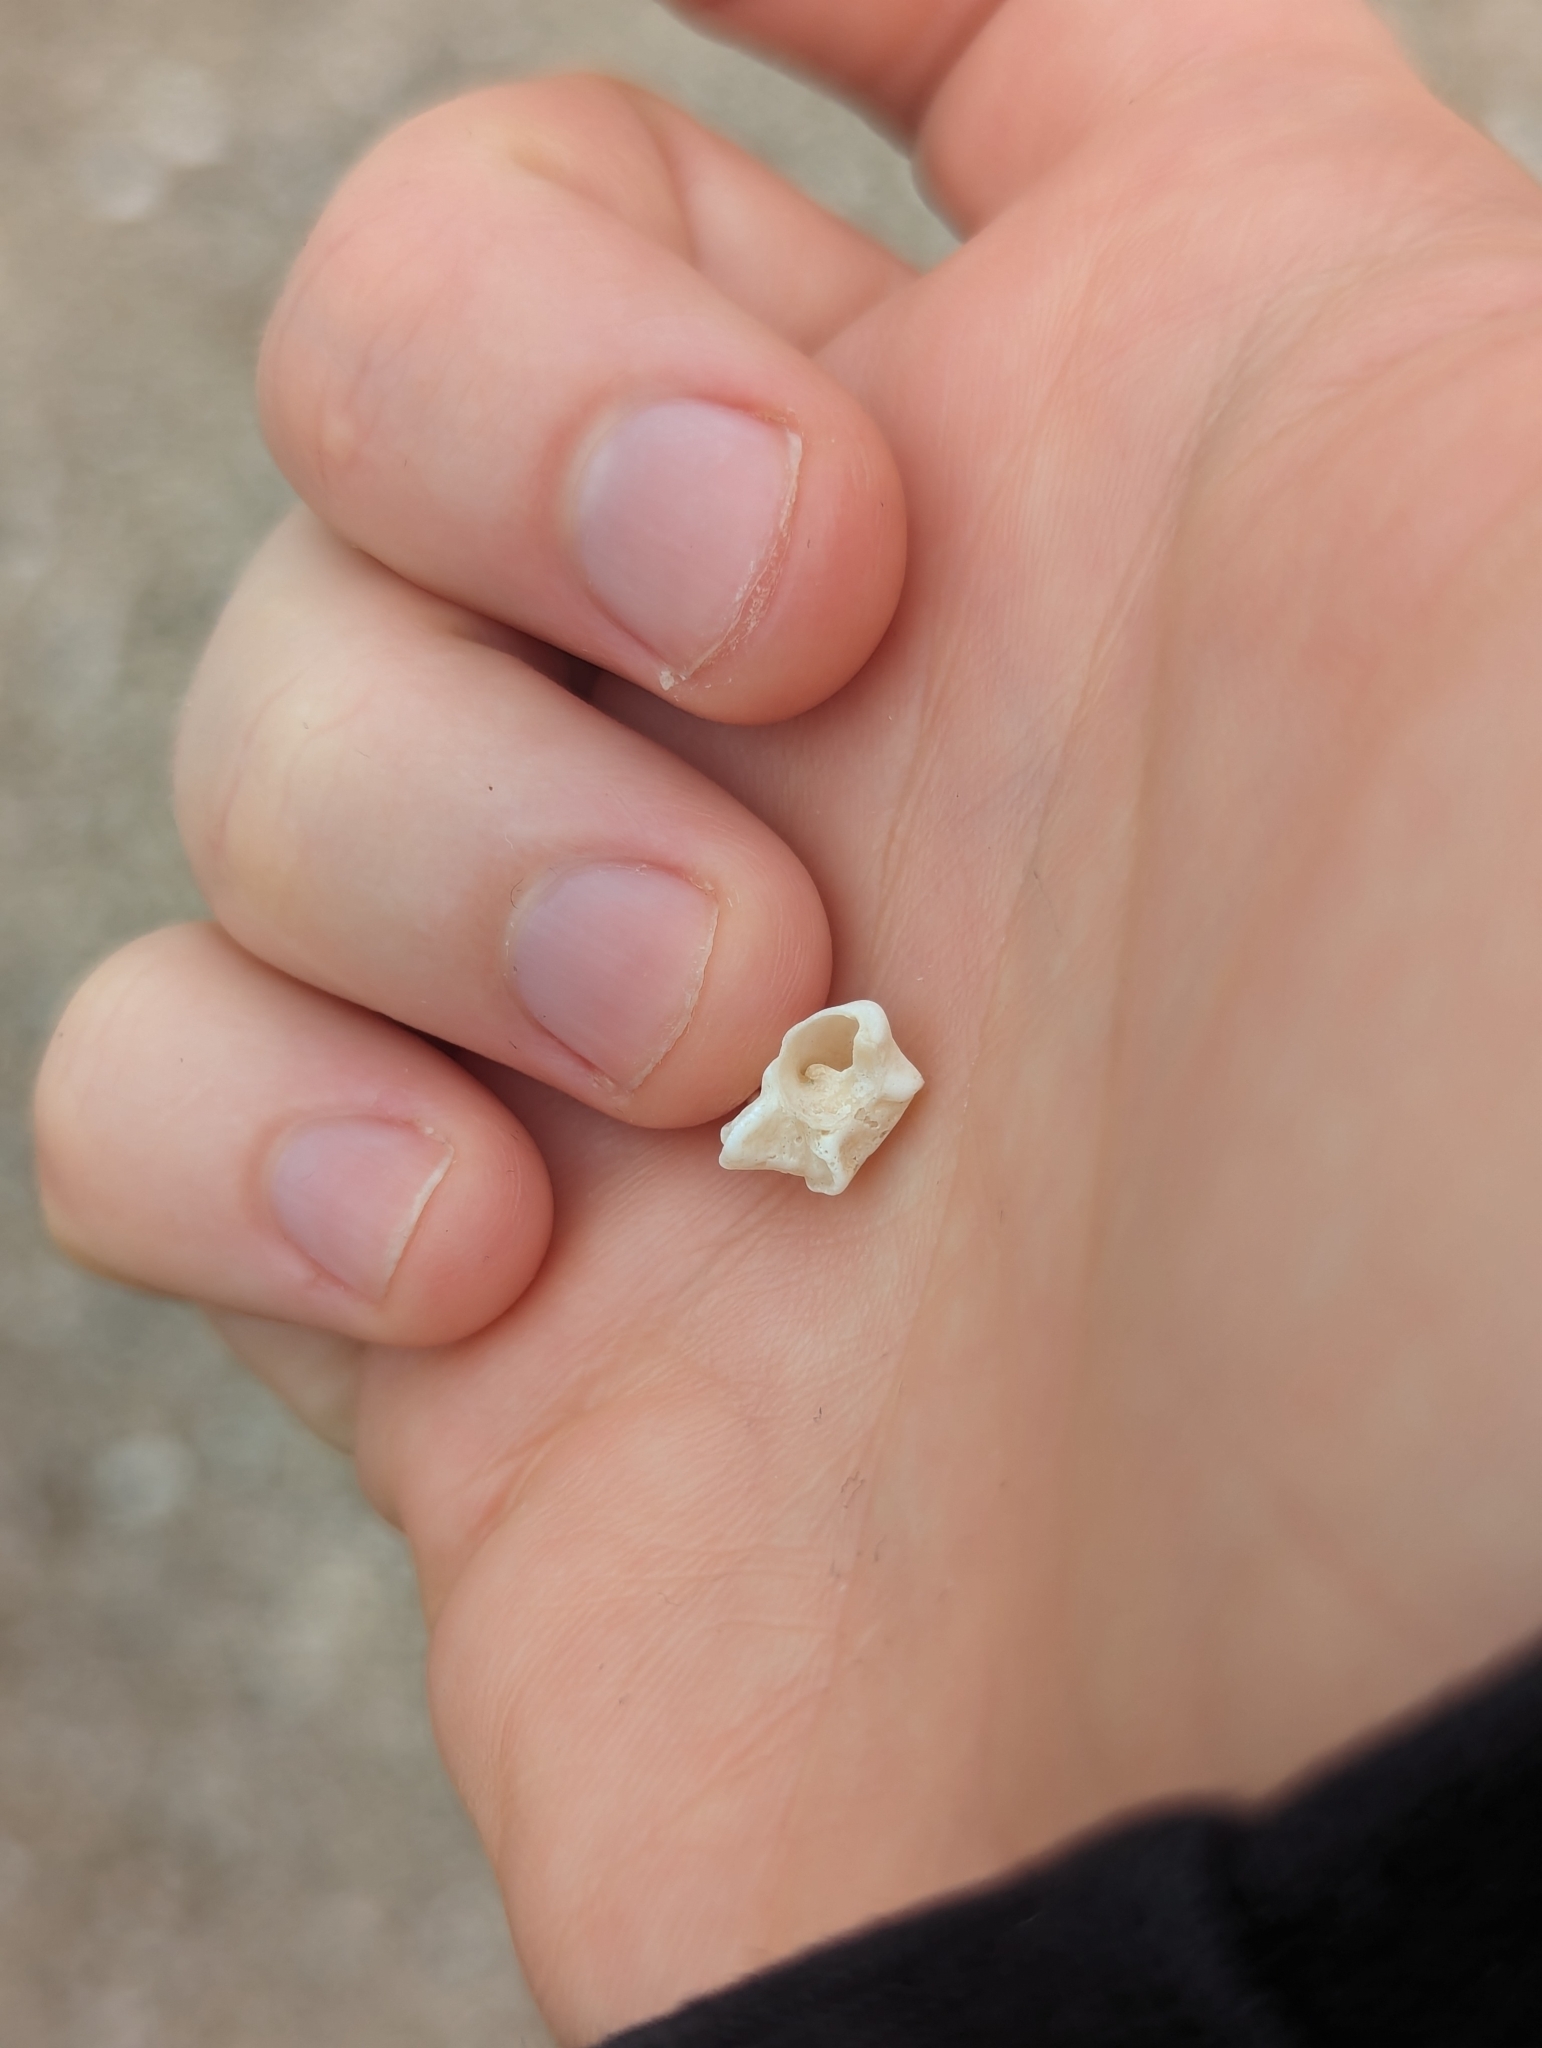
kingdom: Animalia
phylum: Mollusca
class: Gastropoda
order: Neogastropoda
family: Muricidae
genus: Ergalatax
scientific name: Ergalatax contracta
